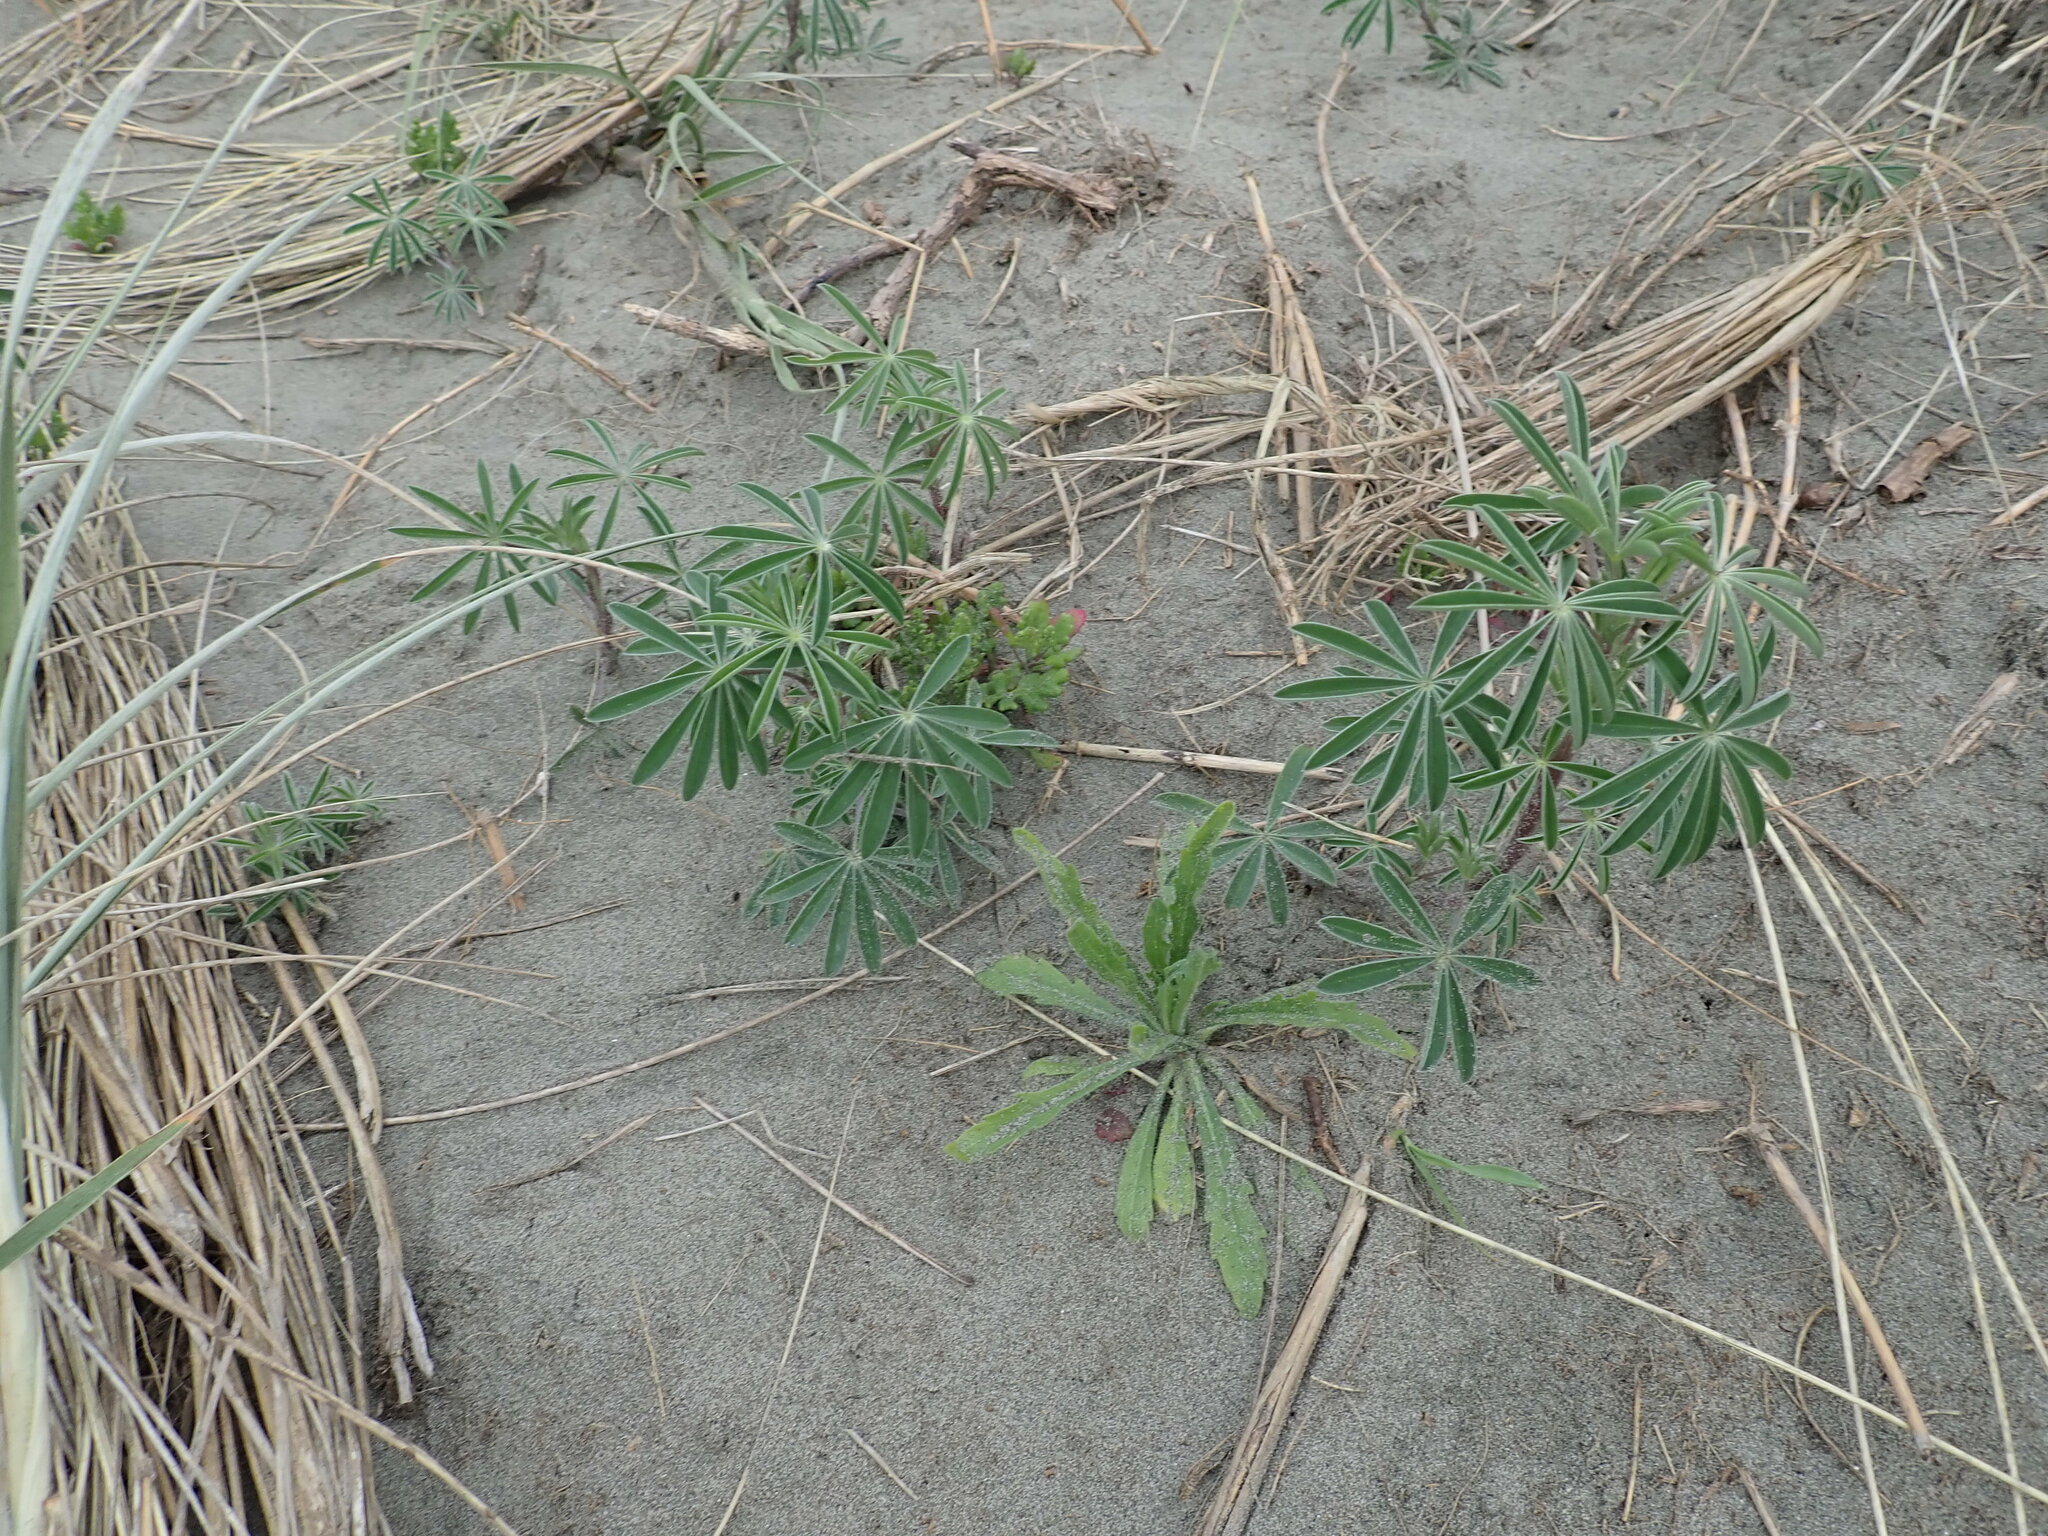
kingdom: Plantae
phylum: Tracheophyta
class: Magnoliopsida
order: Fabales
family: Fabaceae
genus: Lupinus
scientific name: Lupinus arboreus
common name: Yellow bush lupine
